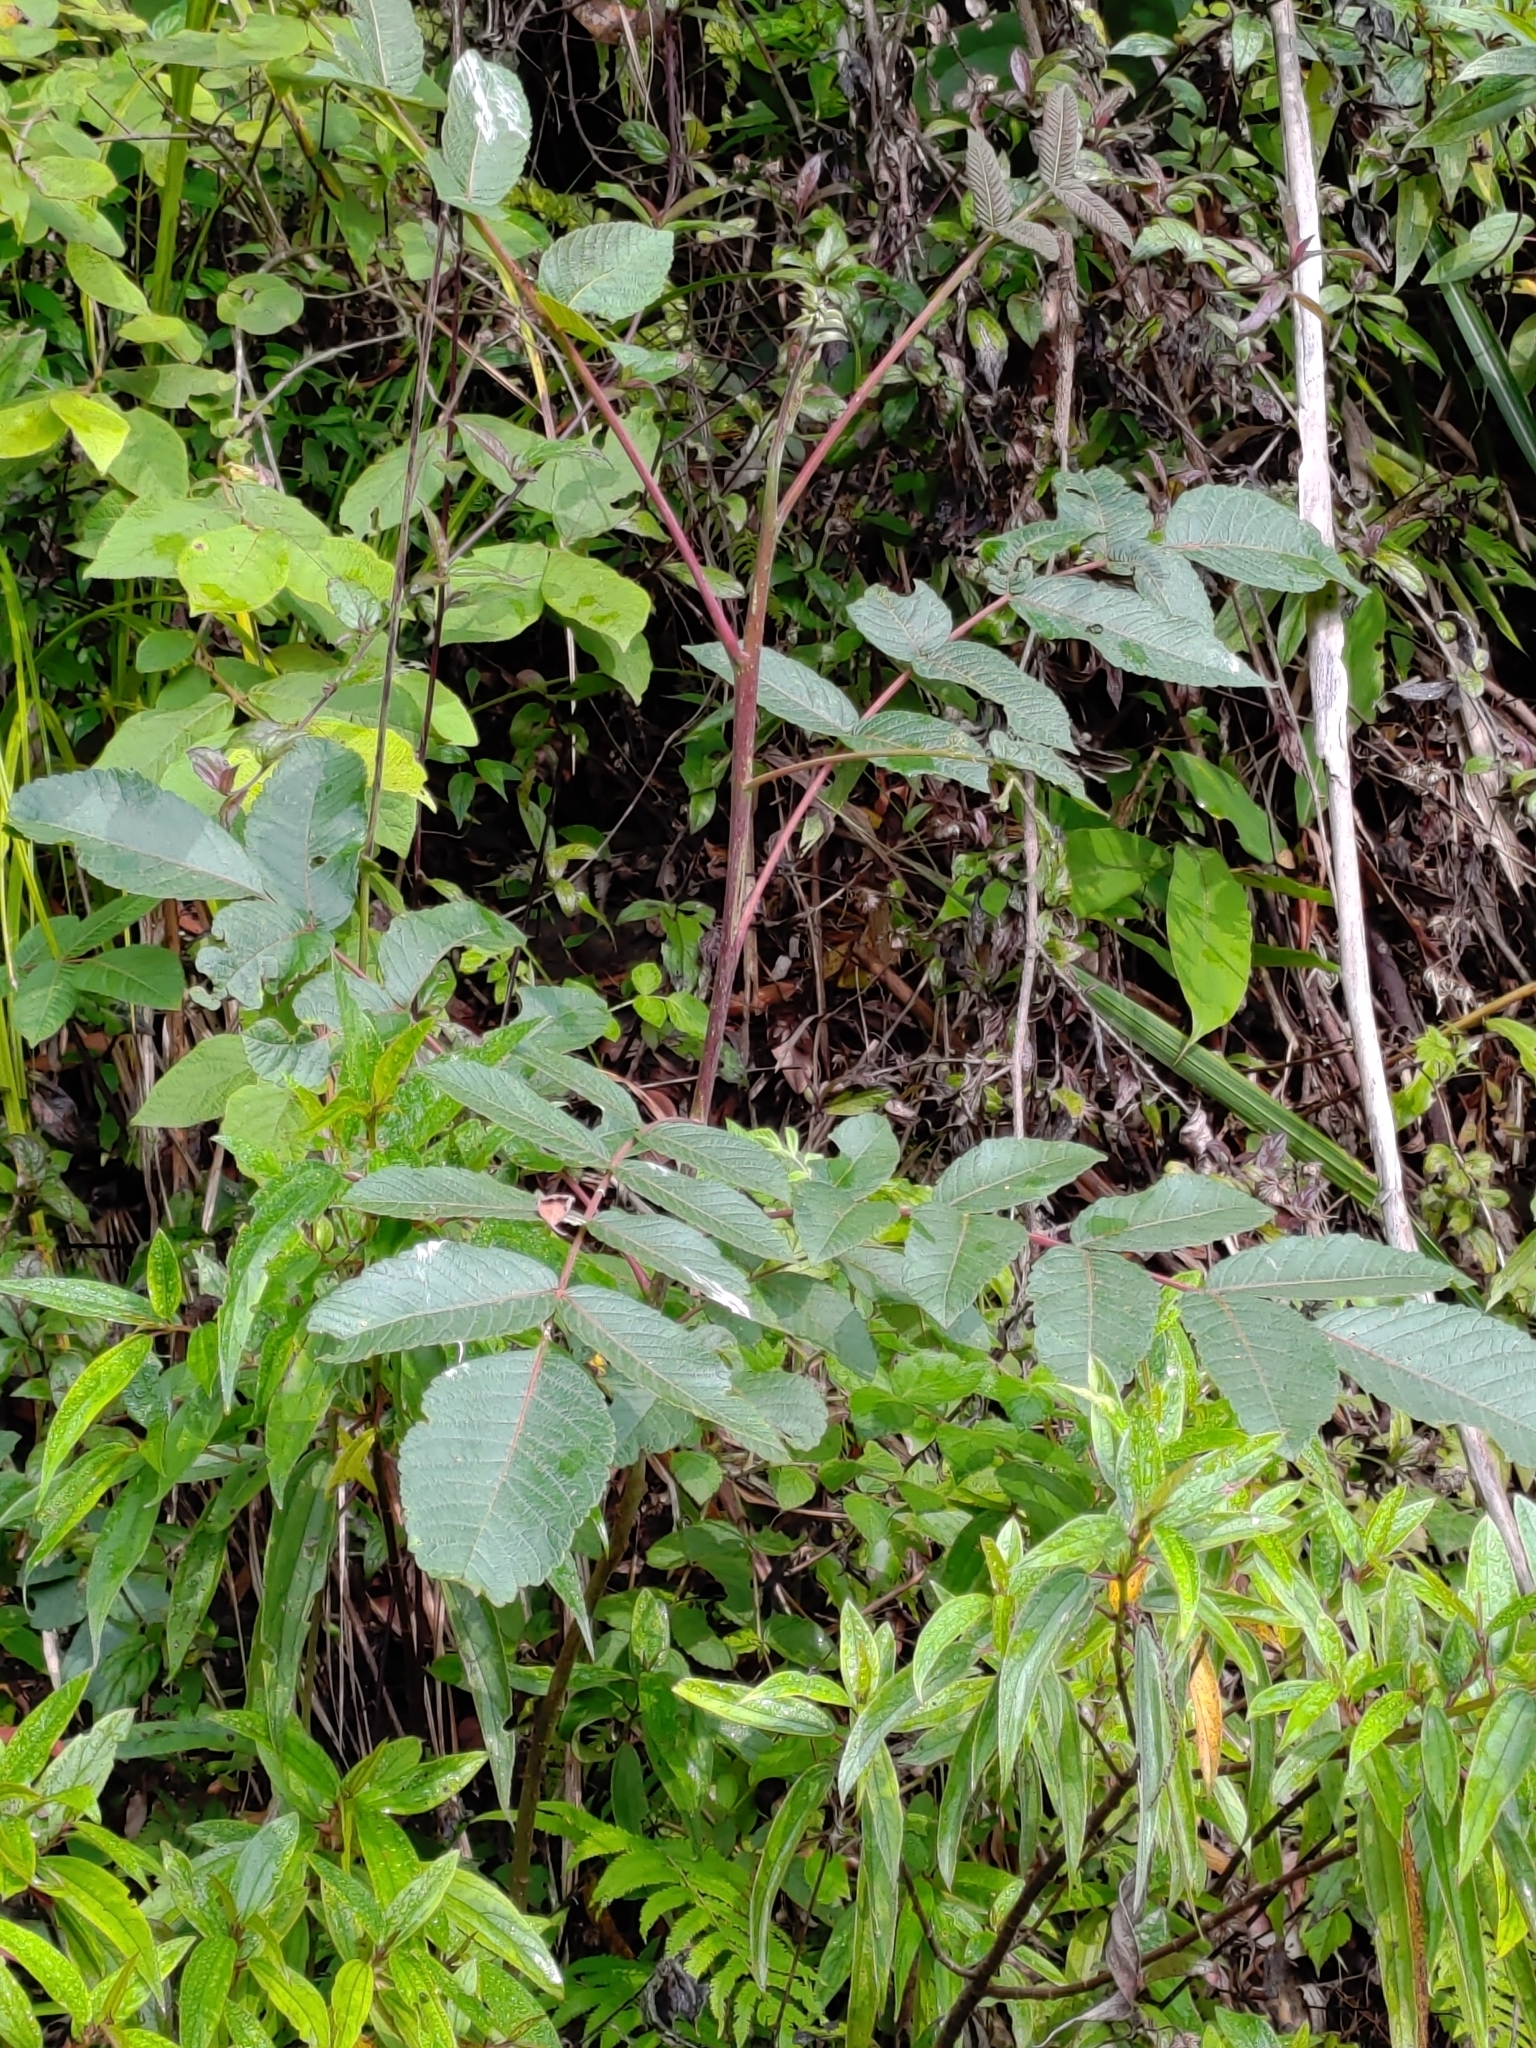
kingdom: Plantae
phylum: Tracheophyta
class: Magnoliopsida
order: Sapindales
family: Anacardiaceae
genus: Rhus
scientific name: Rhus chinensis
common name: Chinese gall
